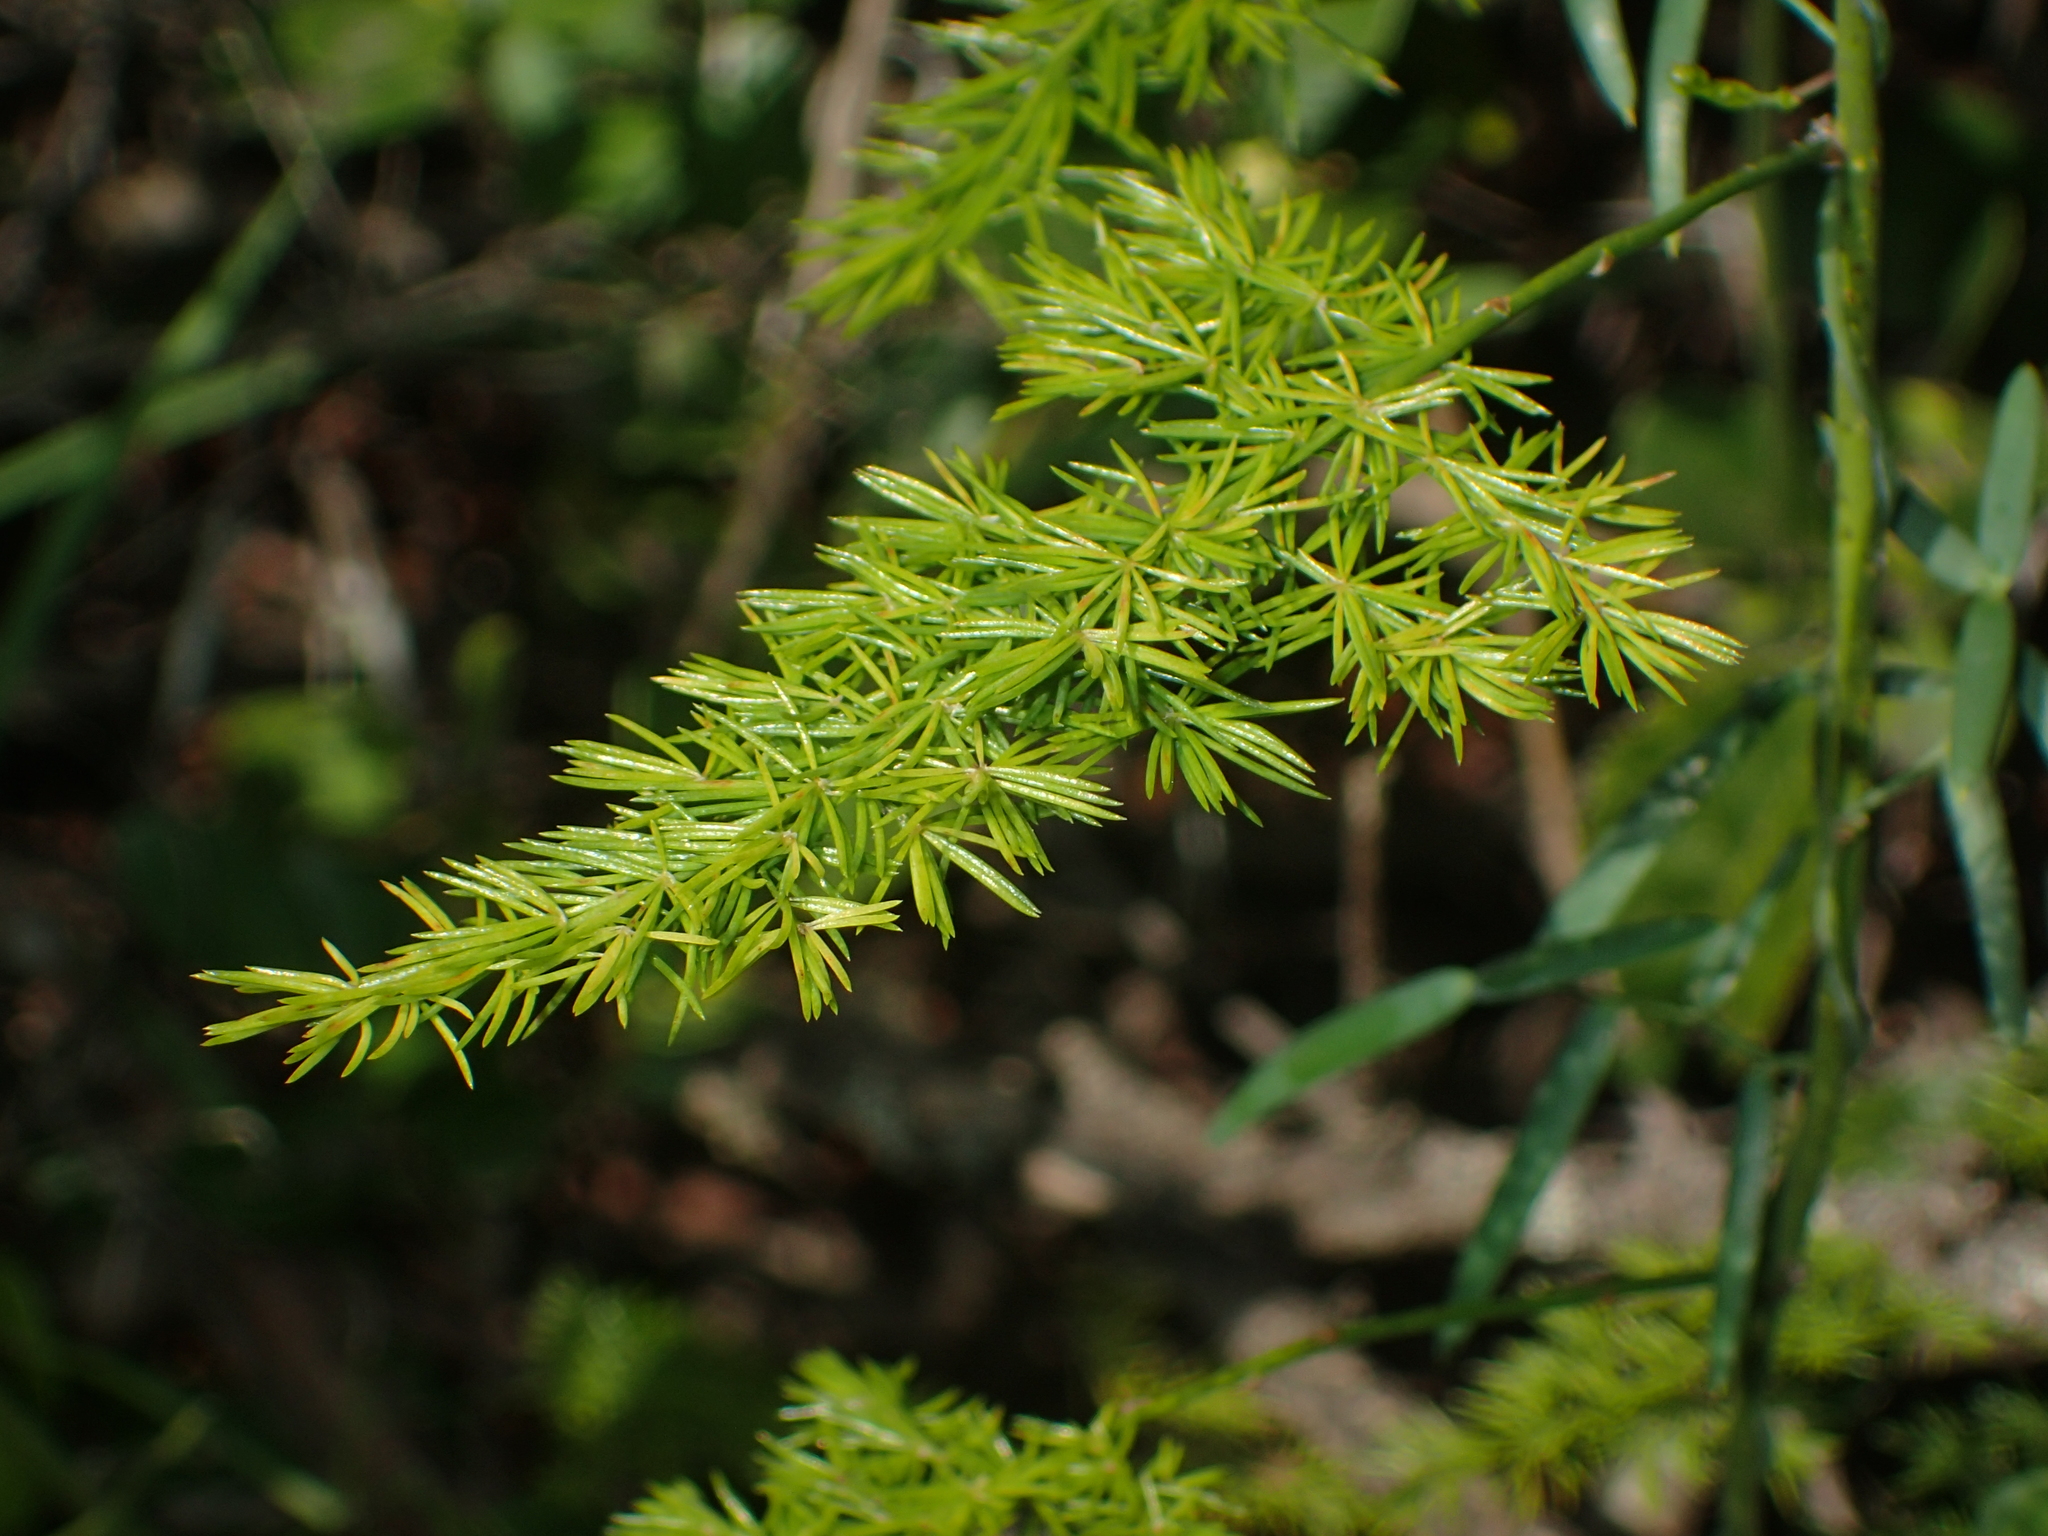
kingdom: Plantae
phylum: Tracheophyta
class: Liliopsida
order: Asparagales
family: Asparagaceae
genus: Asparagus
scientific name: Asparagus setaceus
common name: Common asparagus fern
